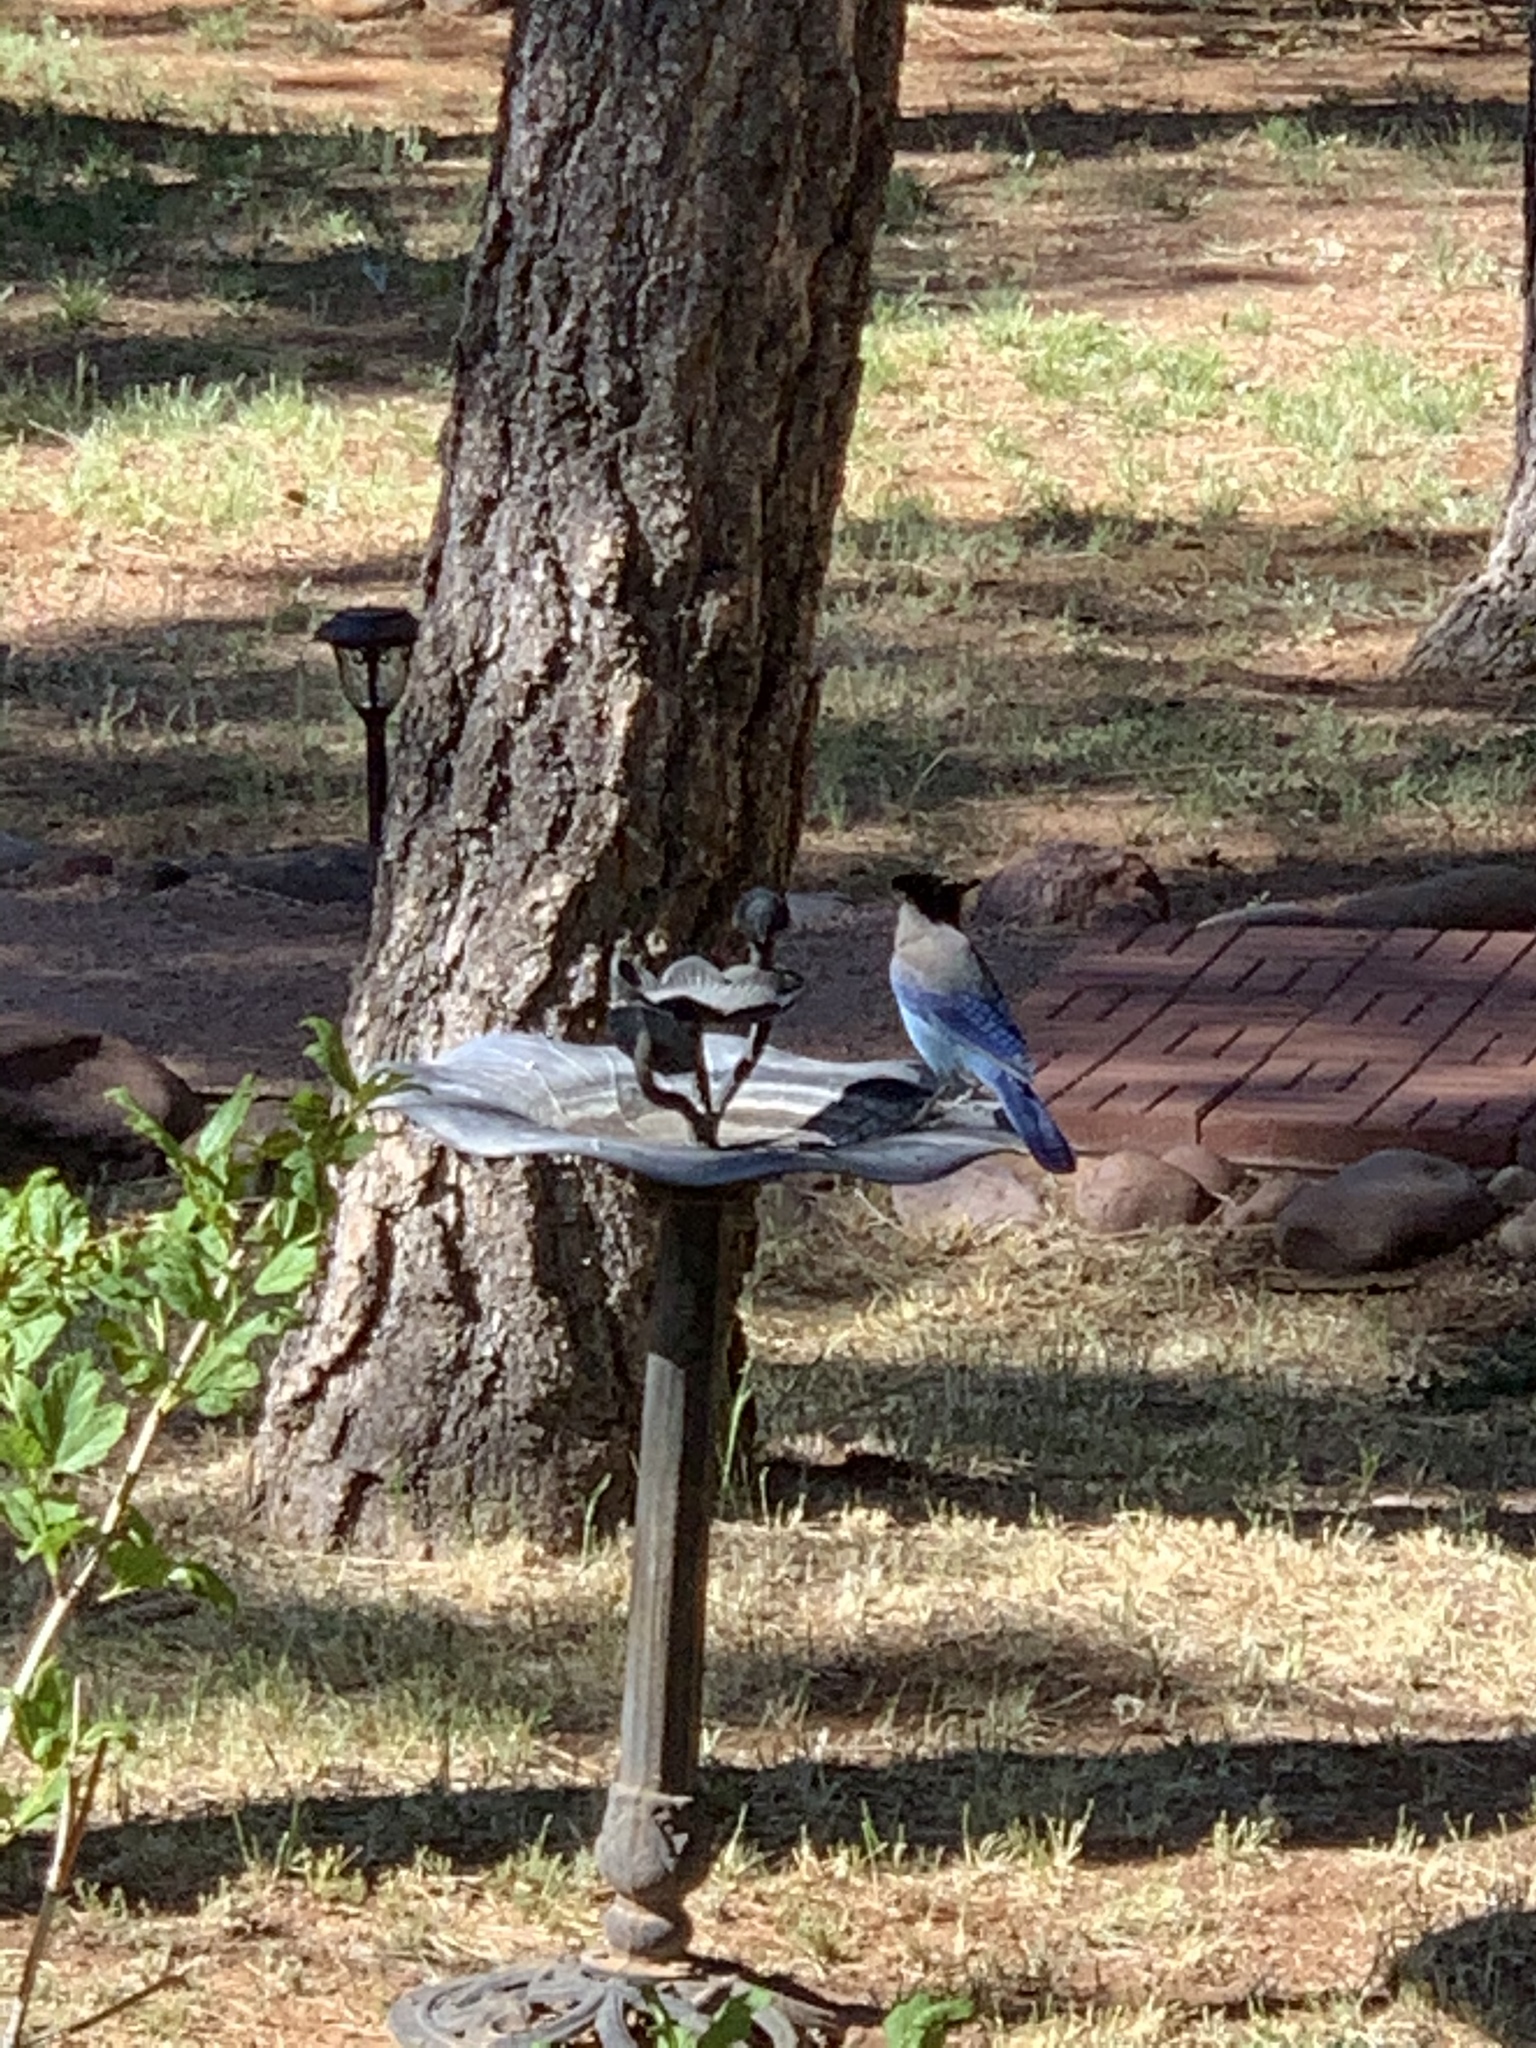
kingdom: Animalia
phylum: Chordata
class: Aves
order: Passeriformes
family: Corvidae
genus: Cyanocitta
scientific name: Cyanocitta stelleri
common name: Steller's jay
